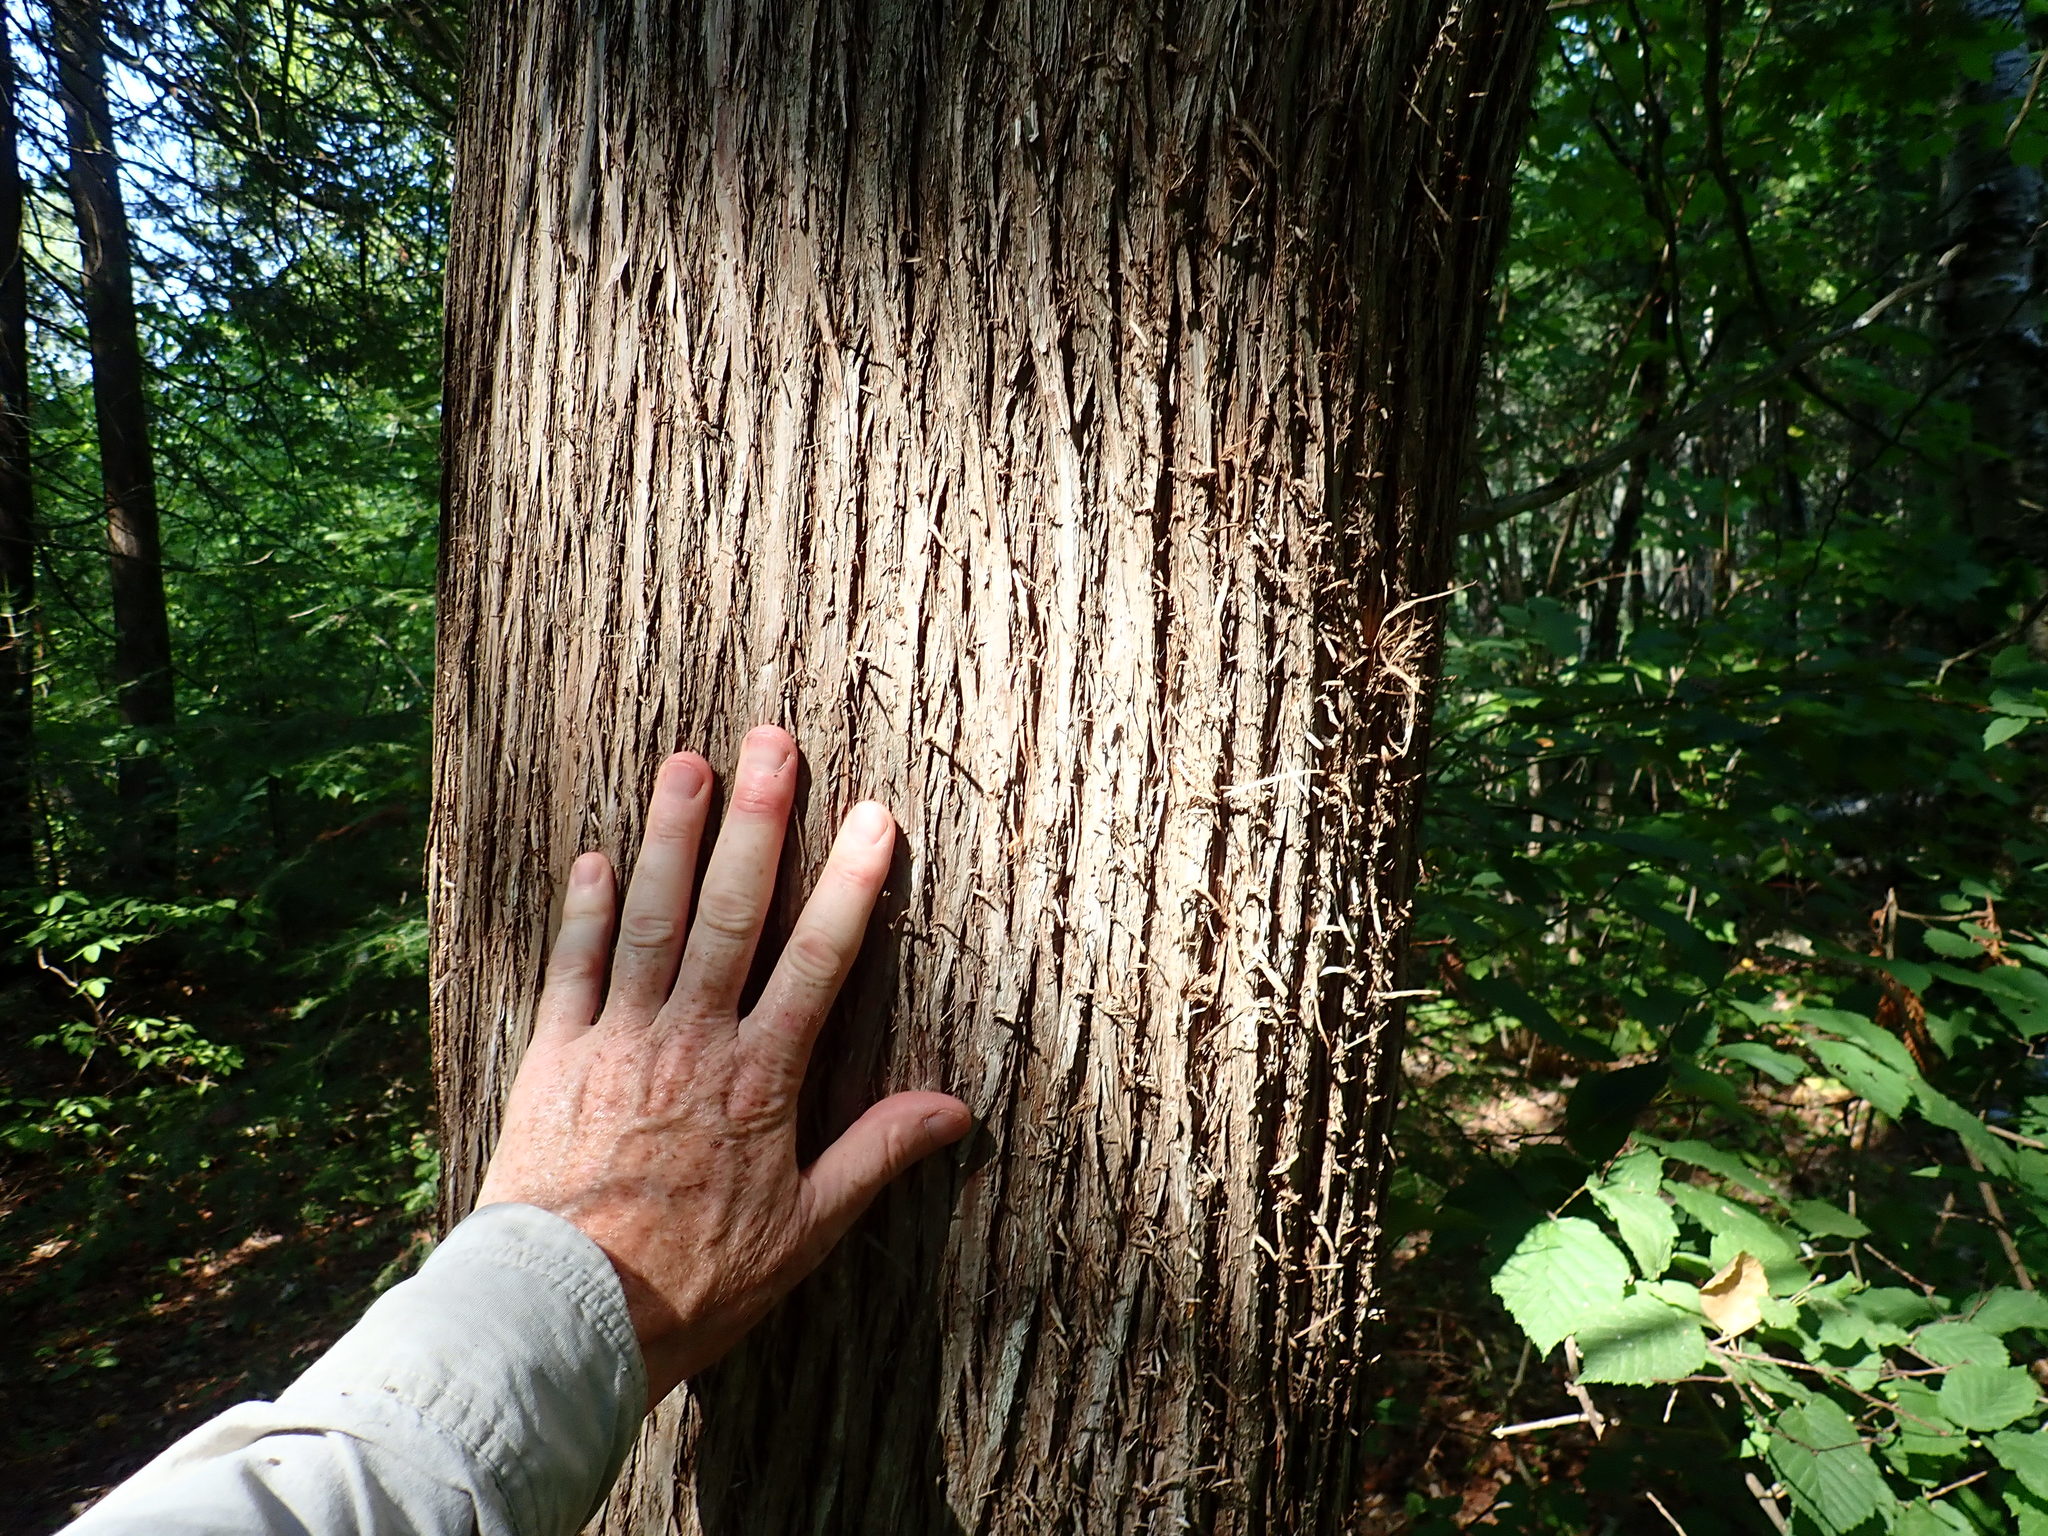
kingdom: Plantae
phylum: Tracheophyta
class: Pinopsida
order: Pinales
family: Cupressaceae
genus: Thuja
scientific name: Thuja occidentalis
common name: Northern white-cedar
